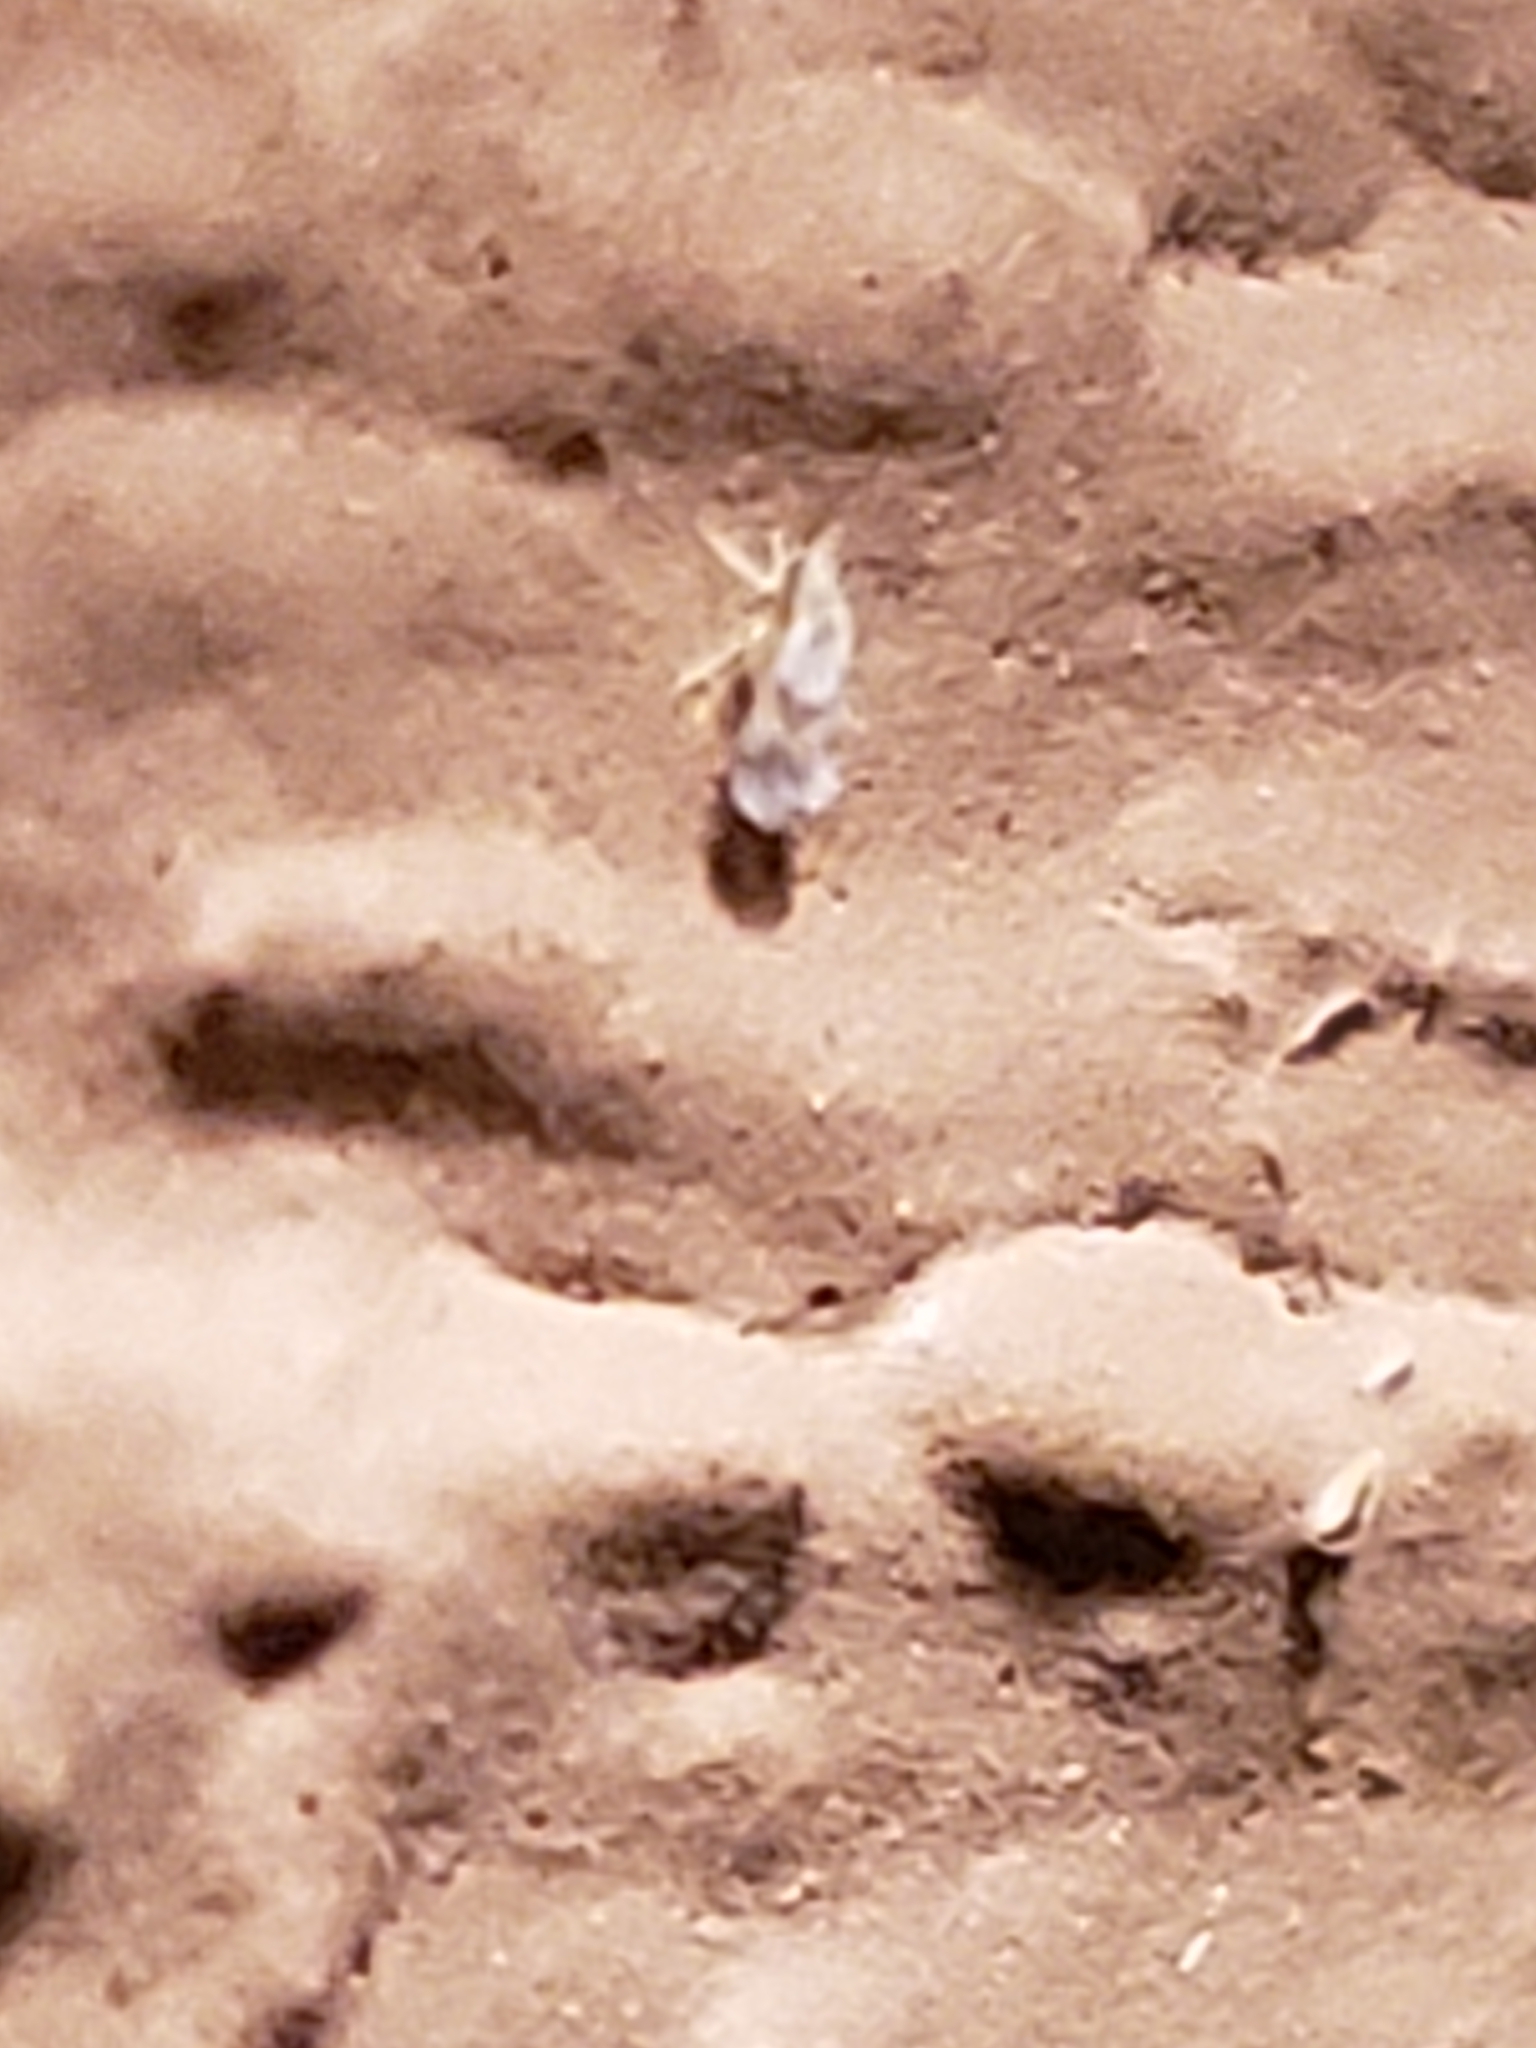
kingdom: Animalia
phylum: Arthropoda
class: Insecta
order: Hemiptera
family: Aleyrodidae
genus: Tetraleurodes
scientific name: Tetraleurodes mori
